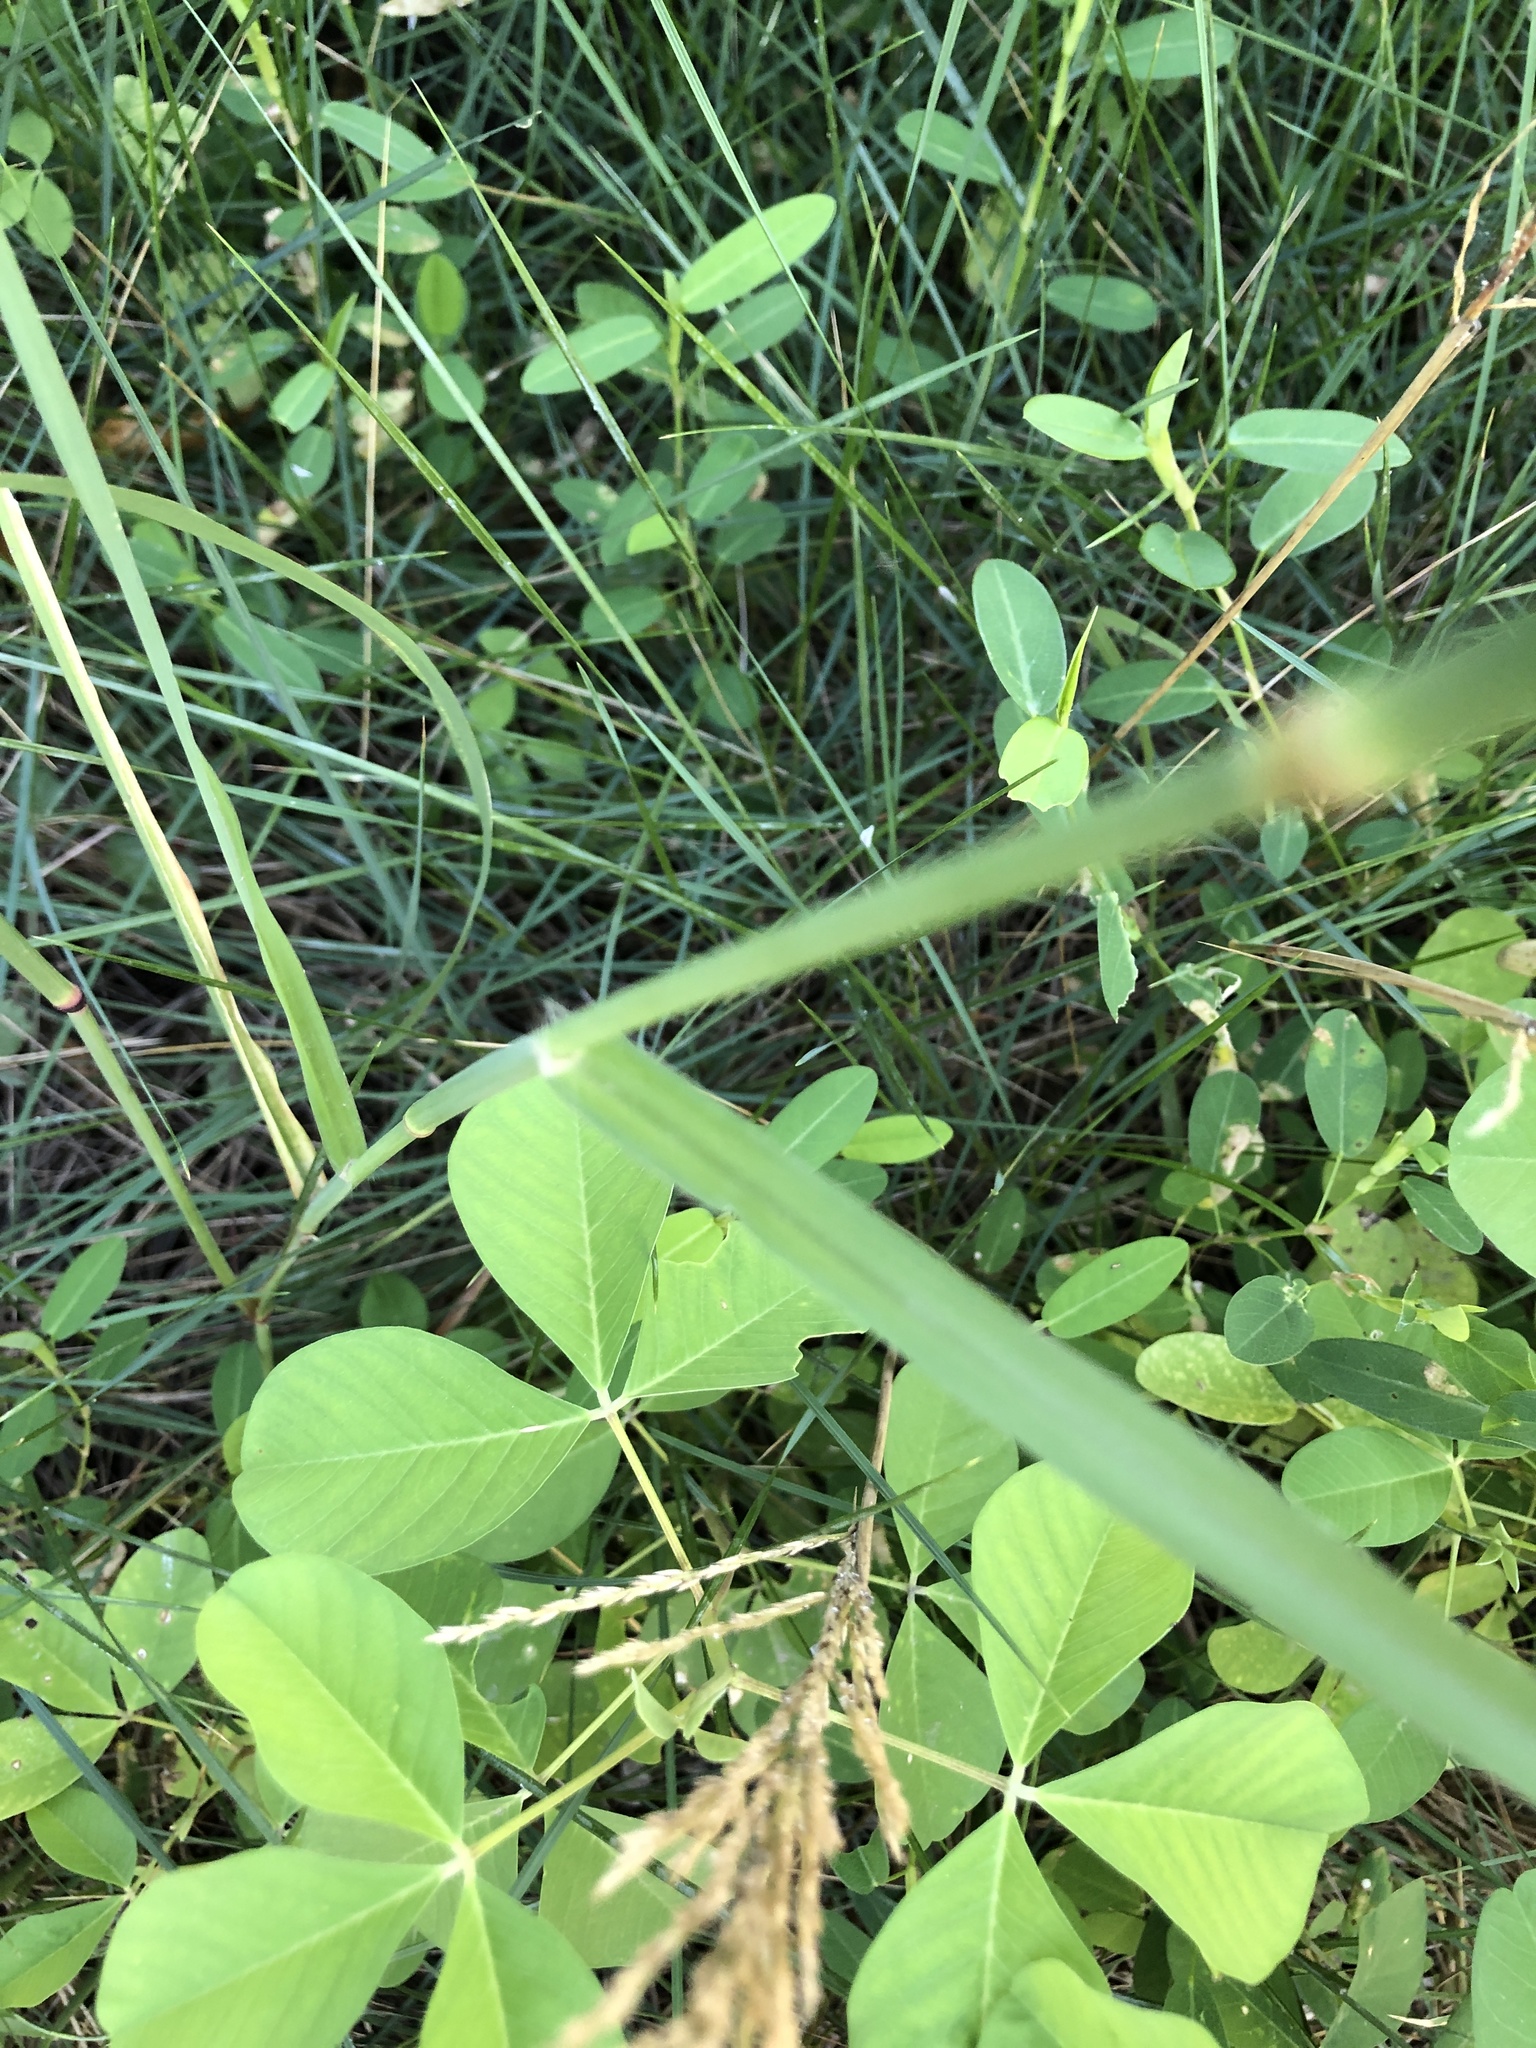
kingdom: Plantae
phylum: Tracheophyta
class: Liliopsida
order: Poales
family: Poaceae
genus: Chloris
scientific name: Chloris barbata
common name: Swollen fingergrass
